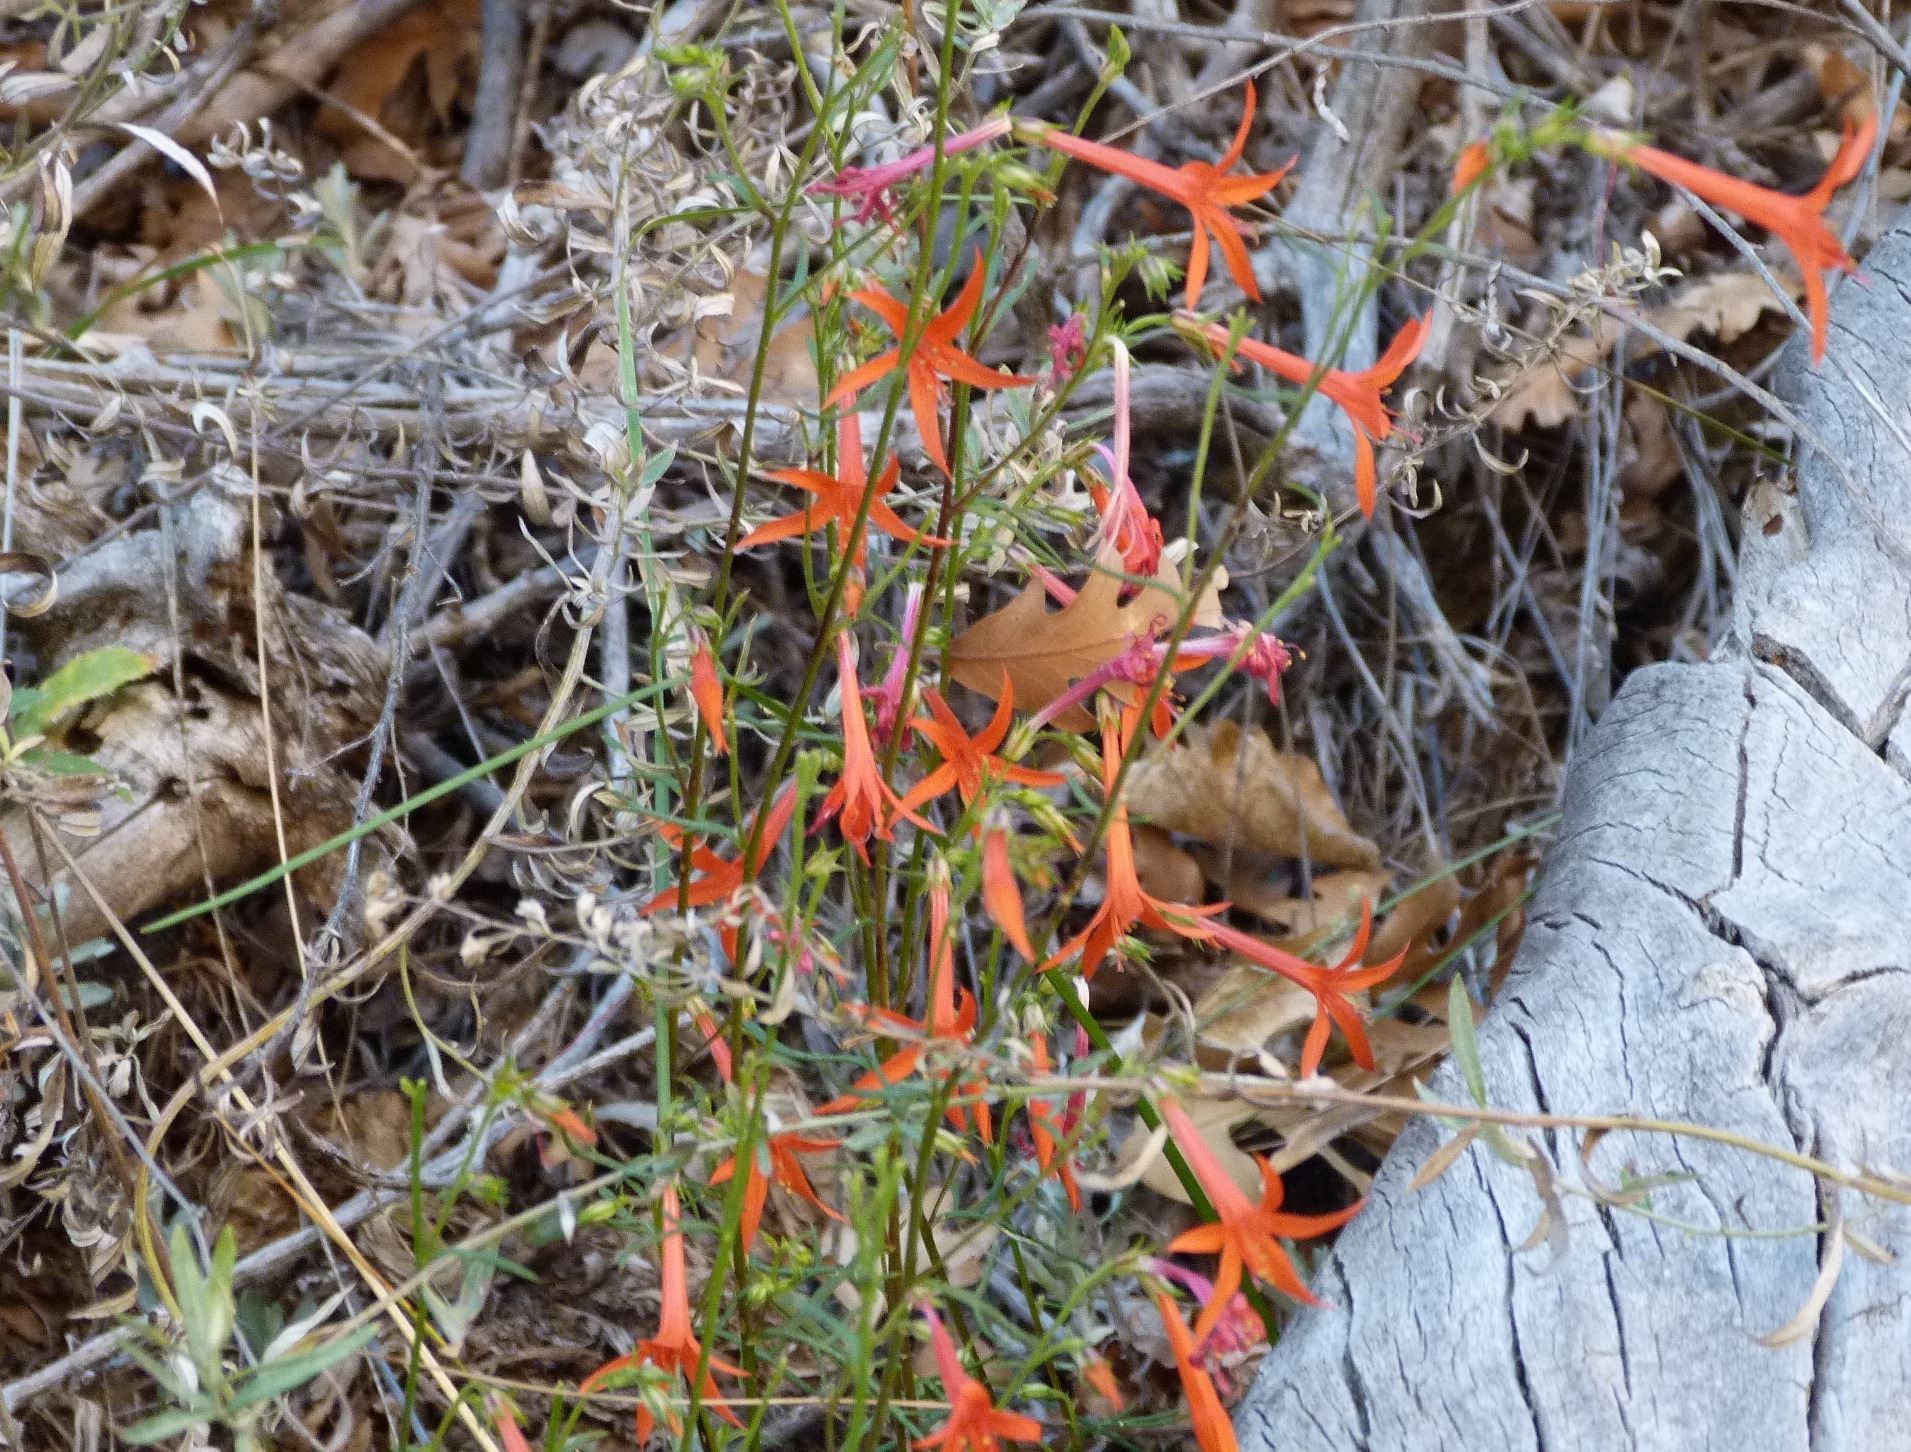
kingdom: Plantae
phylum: Tracheophyta
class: Magnoliopsida
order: Ericales
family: Polemoniaceae
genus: Ipomopsis
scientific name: Ipomopsis aggregata
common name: Scarlet gilia
